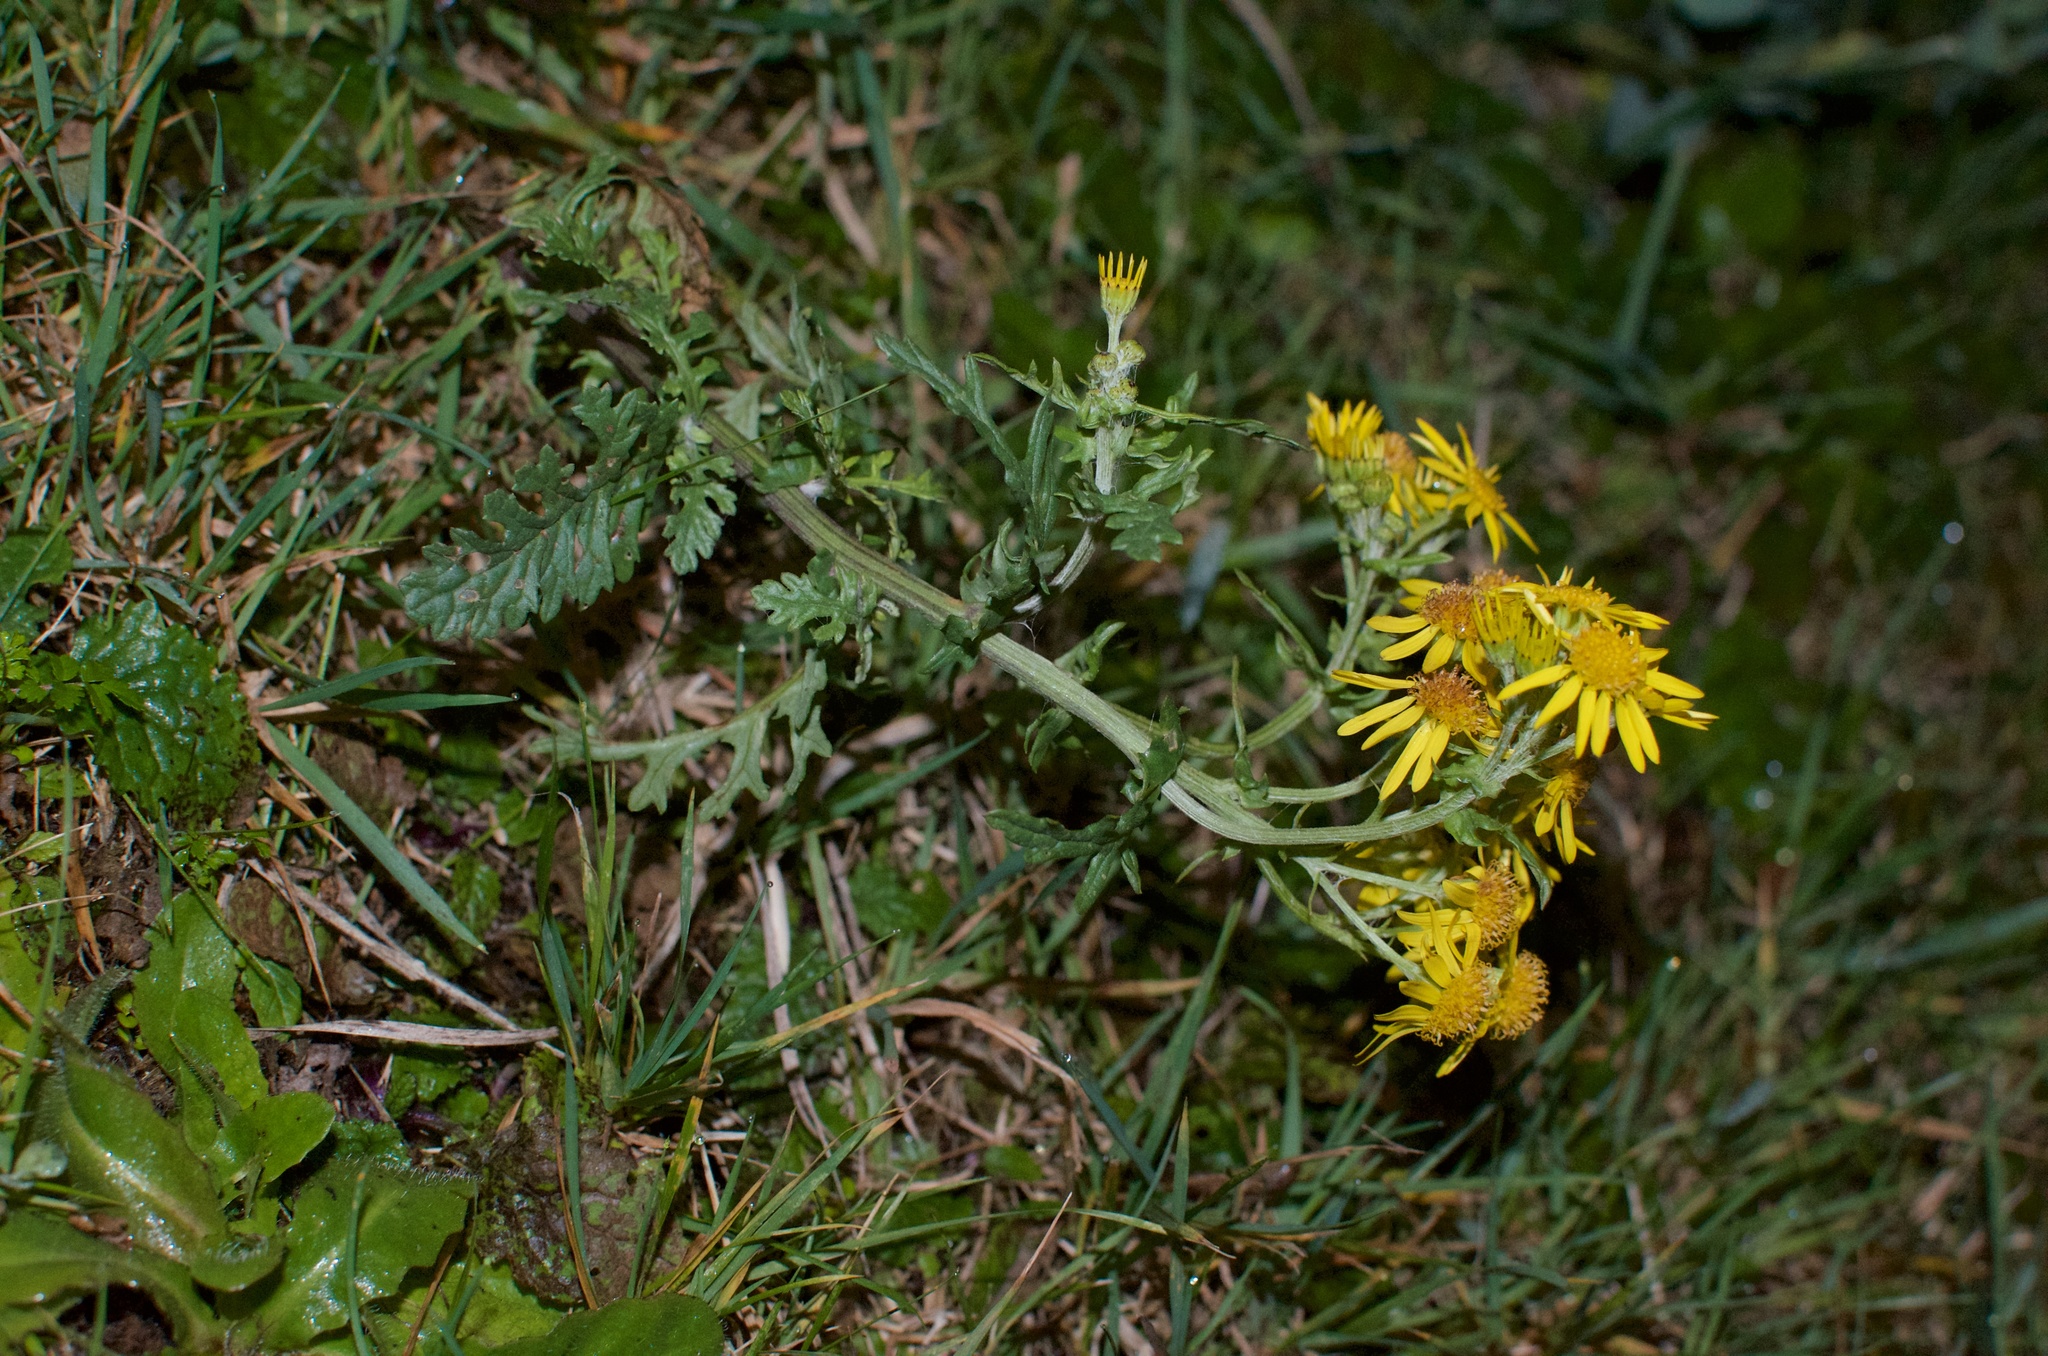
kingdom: Plantae
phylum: Tracheophyta
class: Magnoliopsida
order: Asterales
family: Asteraceae
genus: Jacobaea
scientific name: Jacobaea vulgaris
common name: Stinking willie
